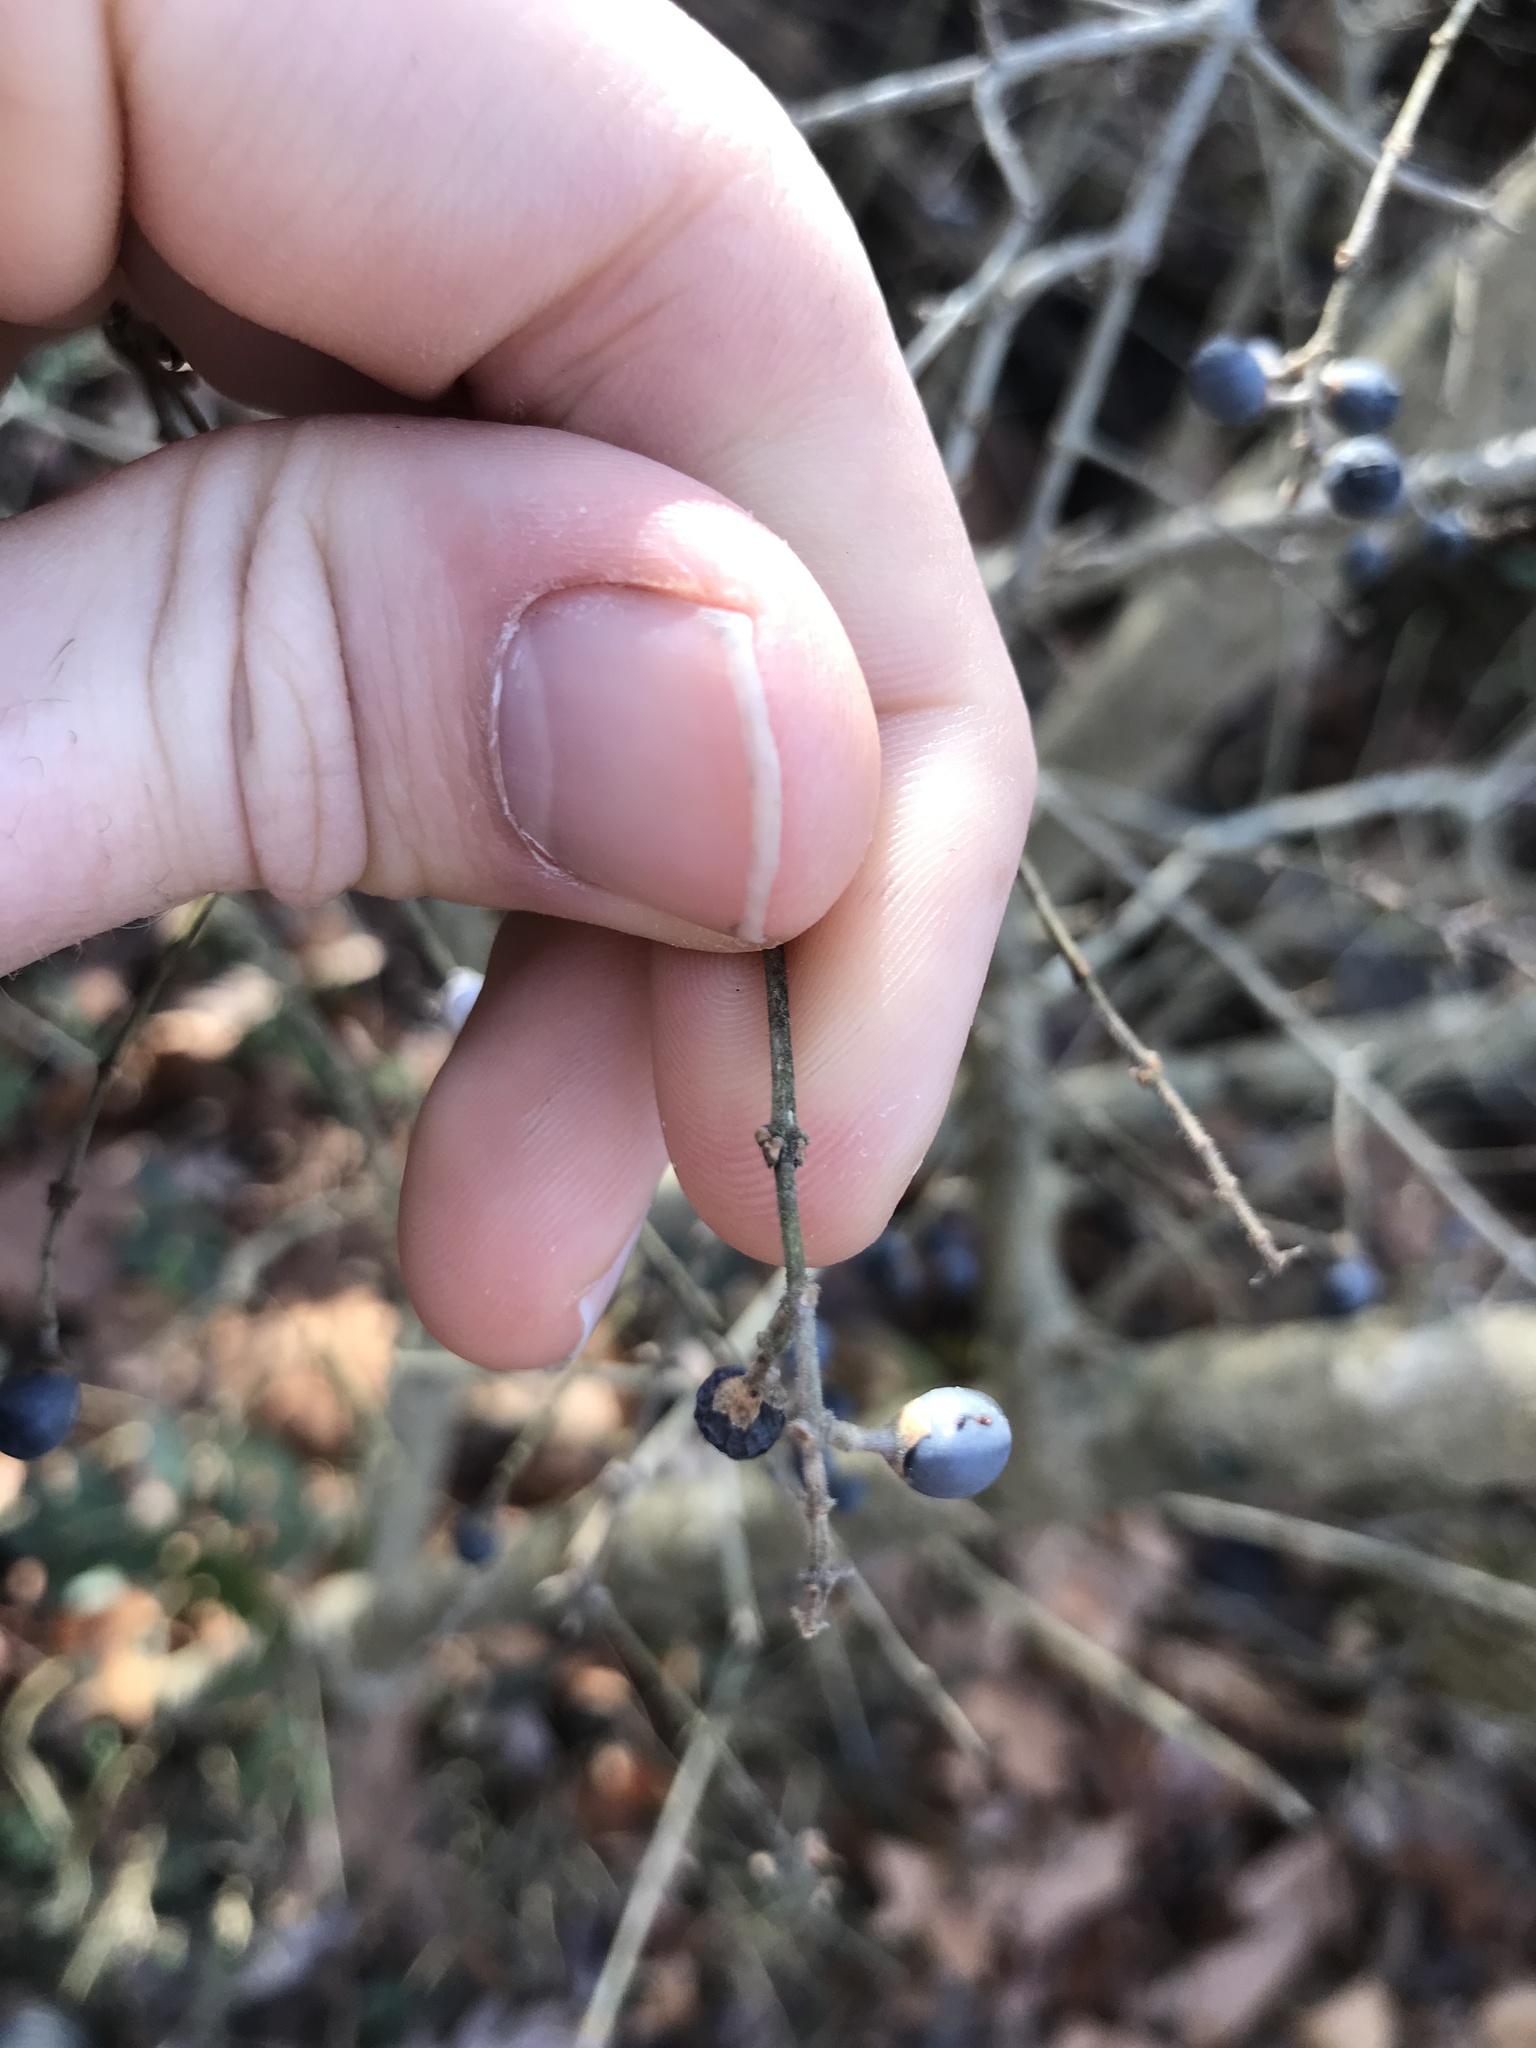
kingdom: Plantae
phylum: Tracheophyta
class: Magnoliopsida
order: Lamiales
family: Oleaceae
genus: Ligustrum
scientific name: Ligustrum obtusifolium
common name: Border privet
